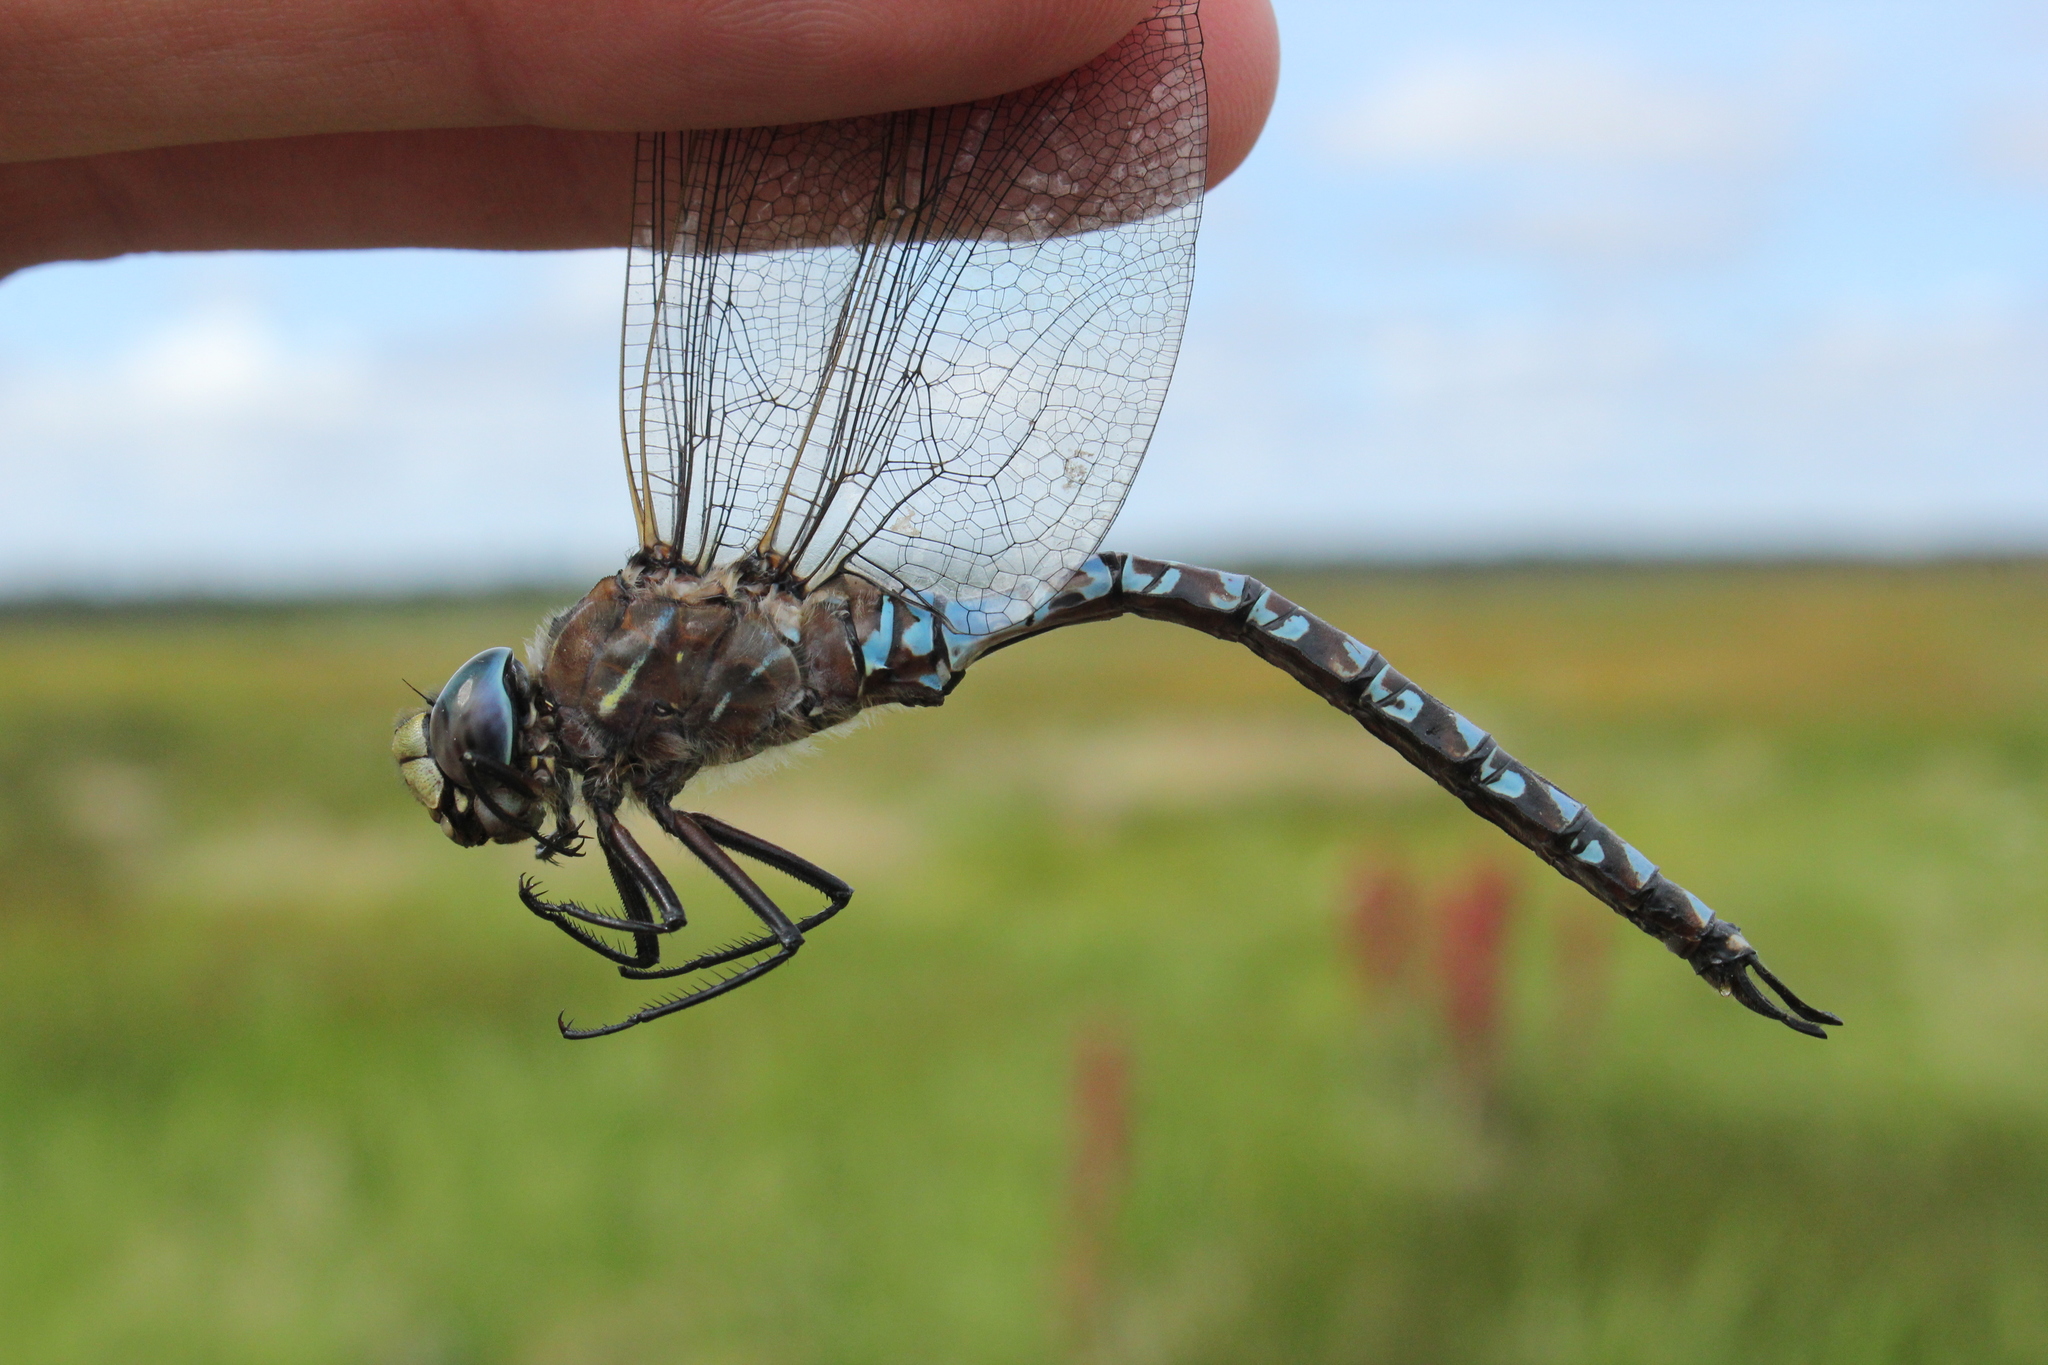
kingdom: Animalia
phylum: Arthropoda
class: Insecta
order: Odonata
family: Aeshnidae
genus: Aeshna
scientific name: Aeshna interrupta
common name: Variable darner
